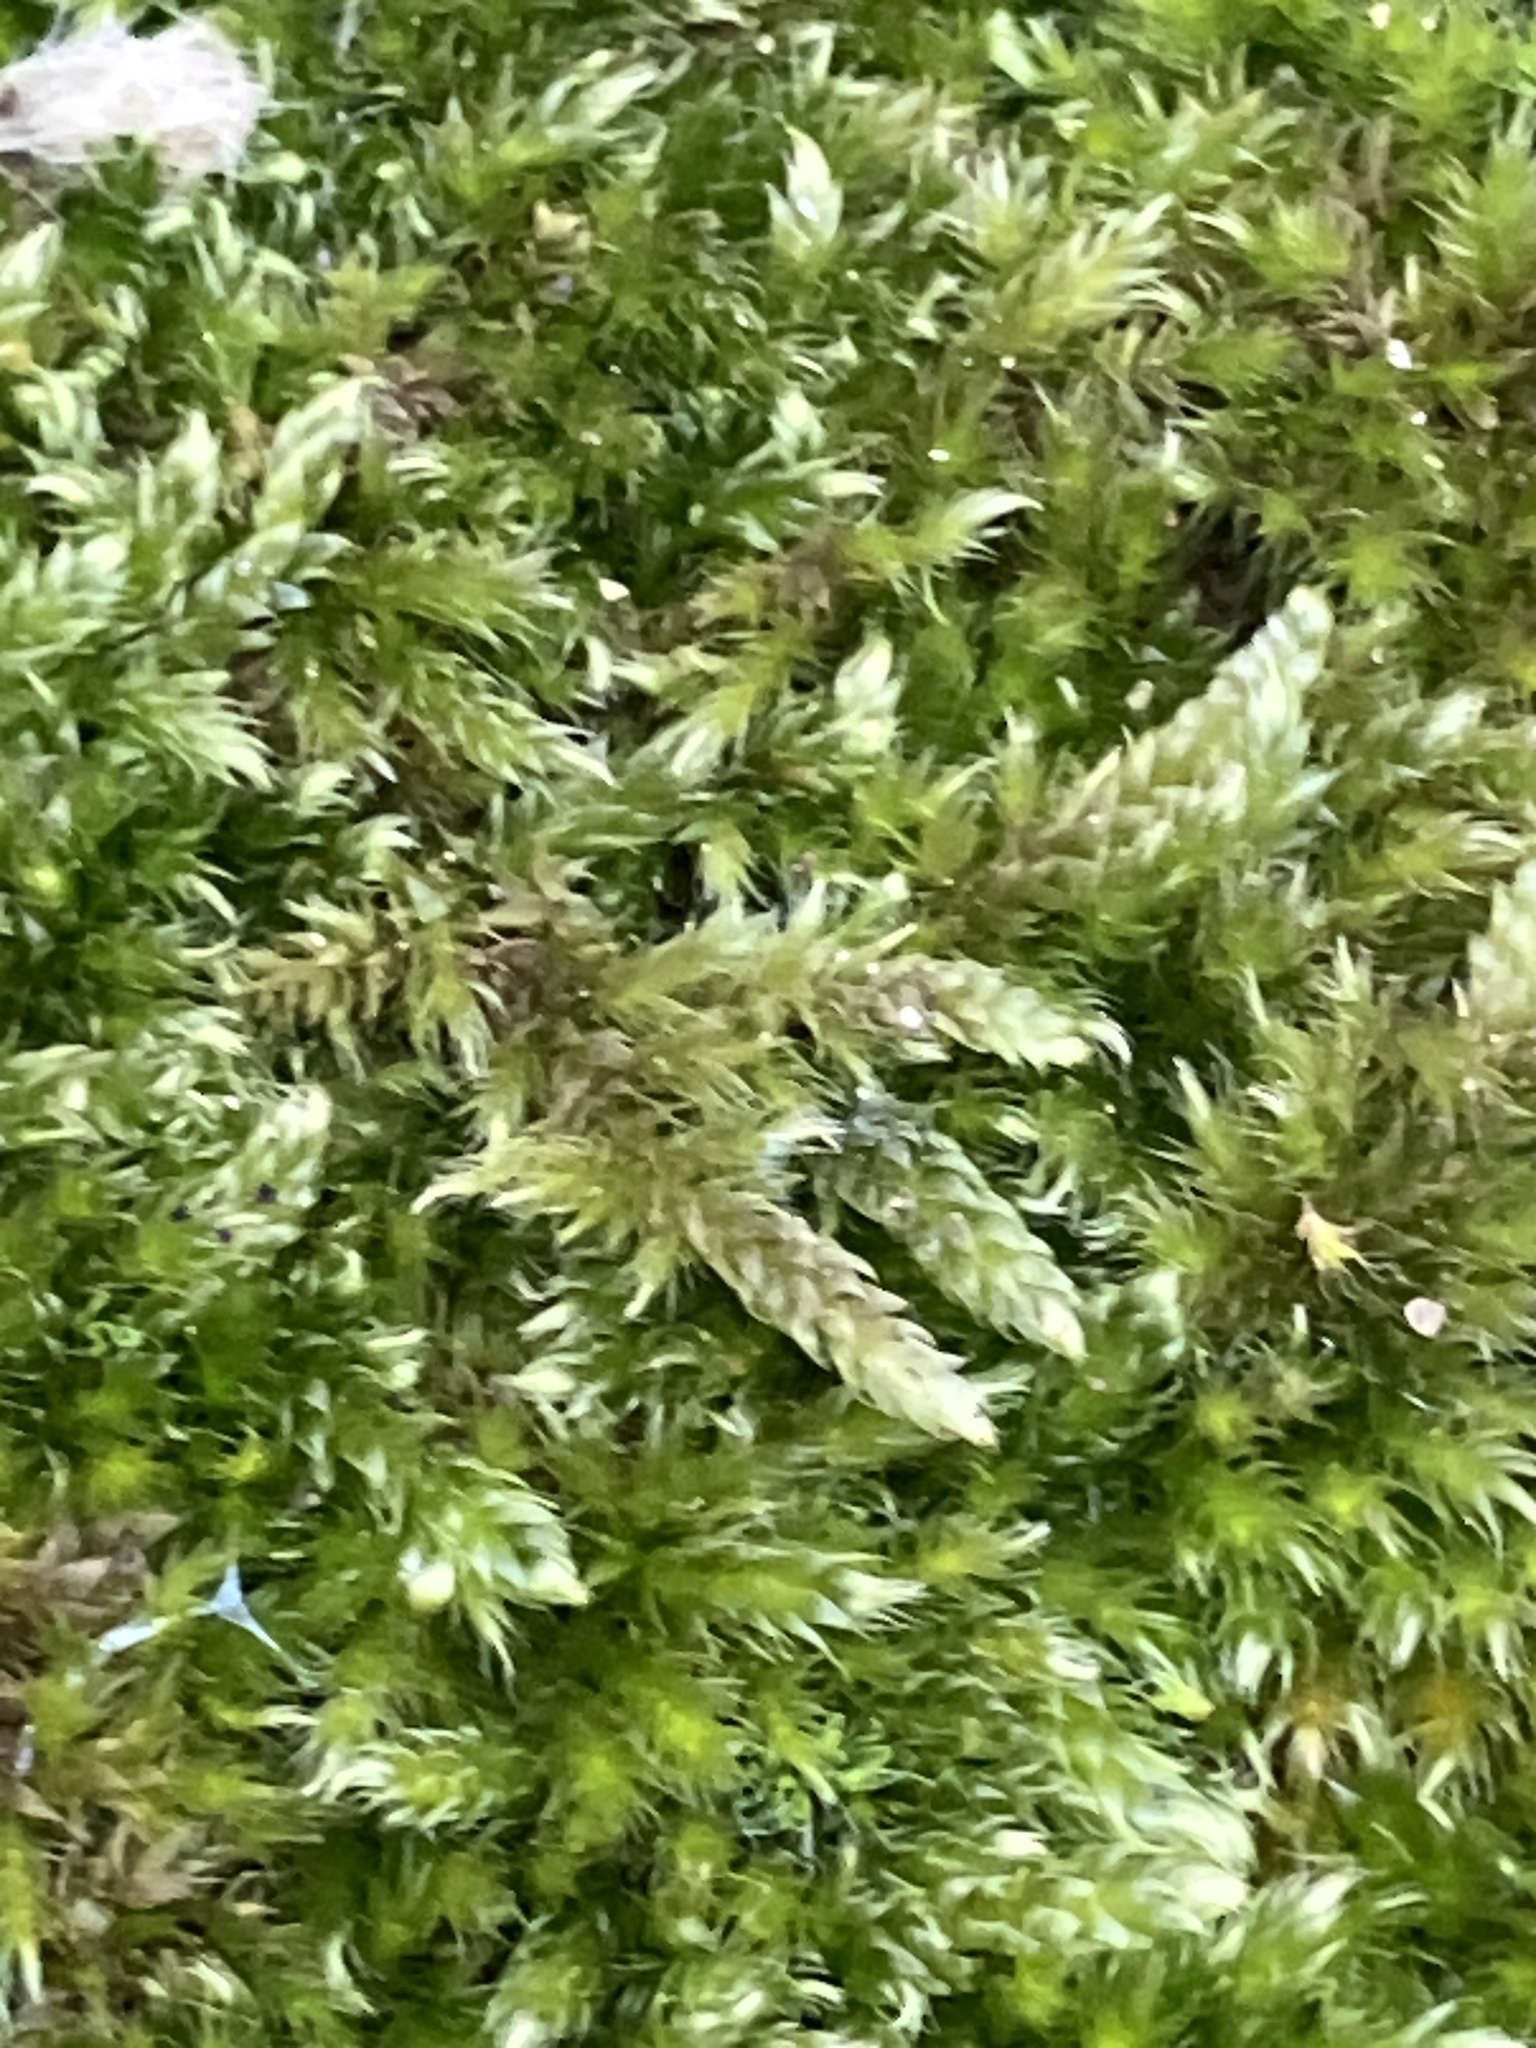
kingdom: Plantae
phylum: Bryophyta
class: Bryopsida
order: Hypnales
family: Hypnaceae
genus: Hypnum
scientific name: Hypnum cupressiforme
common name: Cypress-leaved plait-moss
